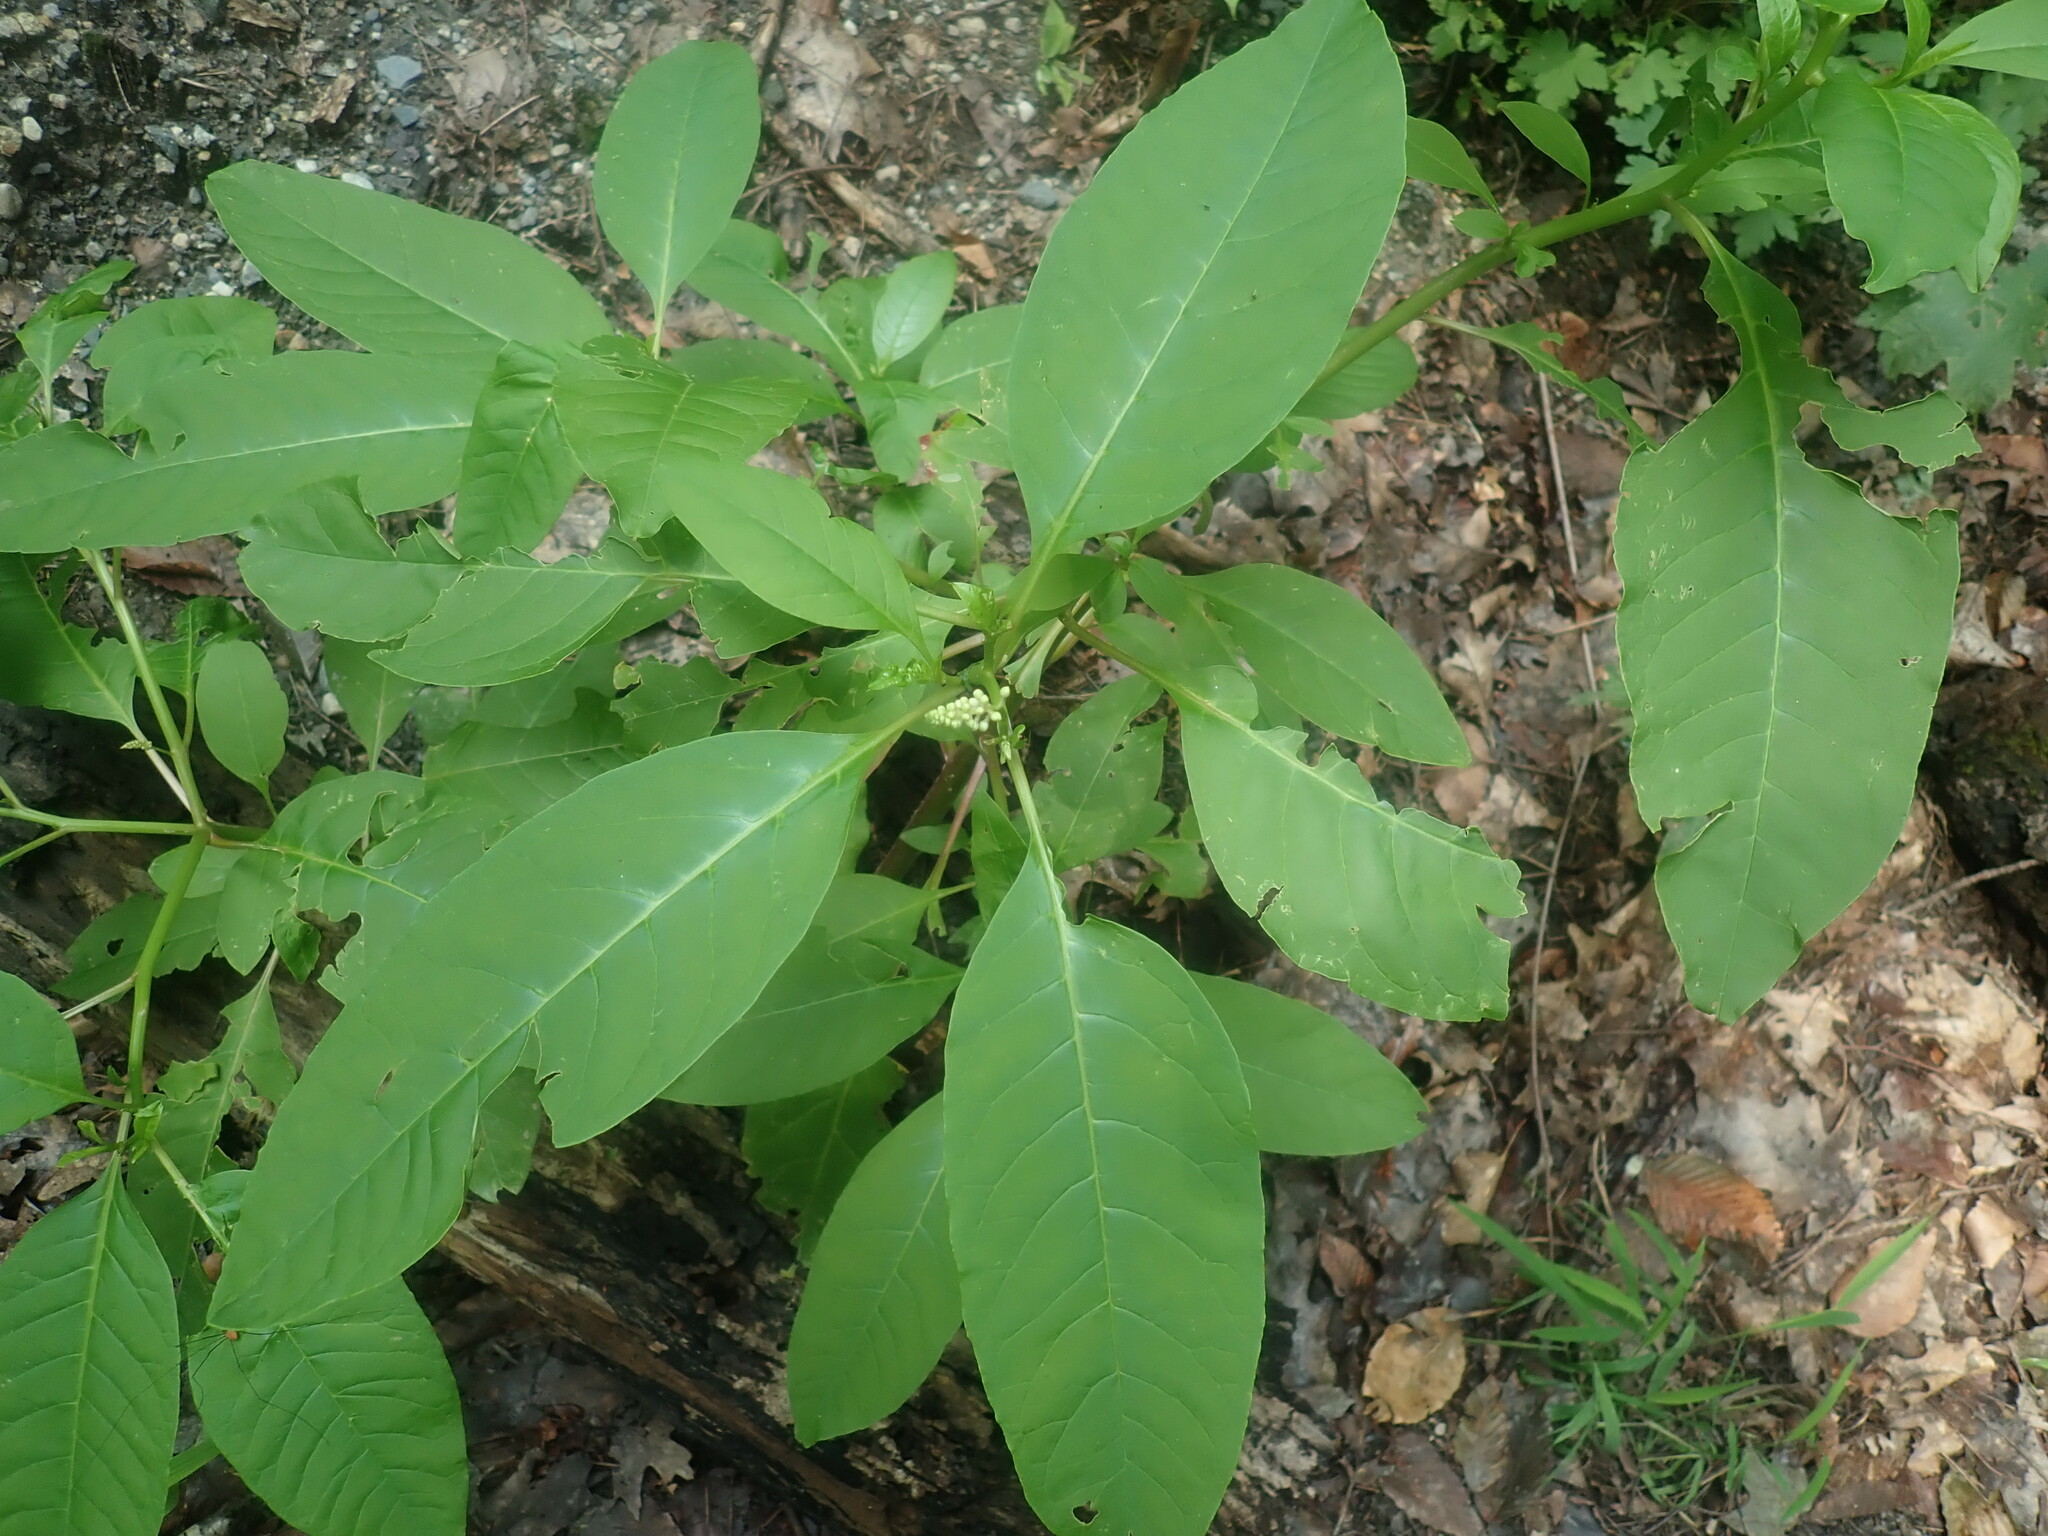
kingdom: Plantae
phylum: Tracheophyta
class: Magnoliopsida
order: Caryophyllales
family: Phytolaccaceae
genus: Phytolacca
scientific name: Phytolacca americana
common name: American pokeweed
